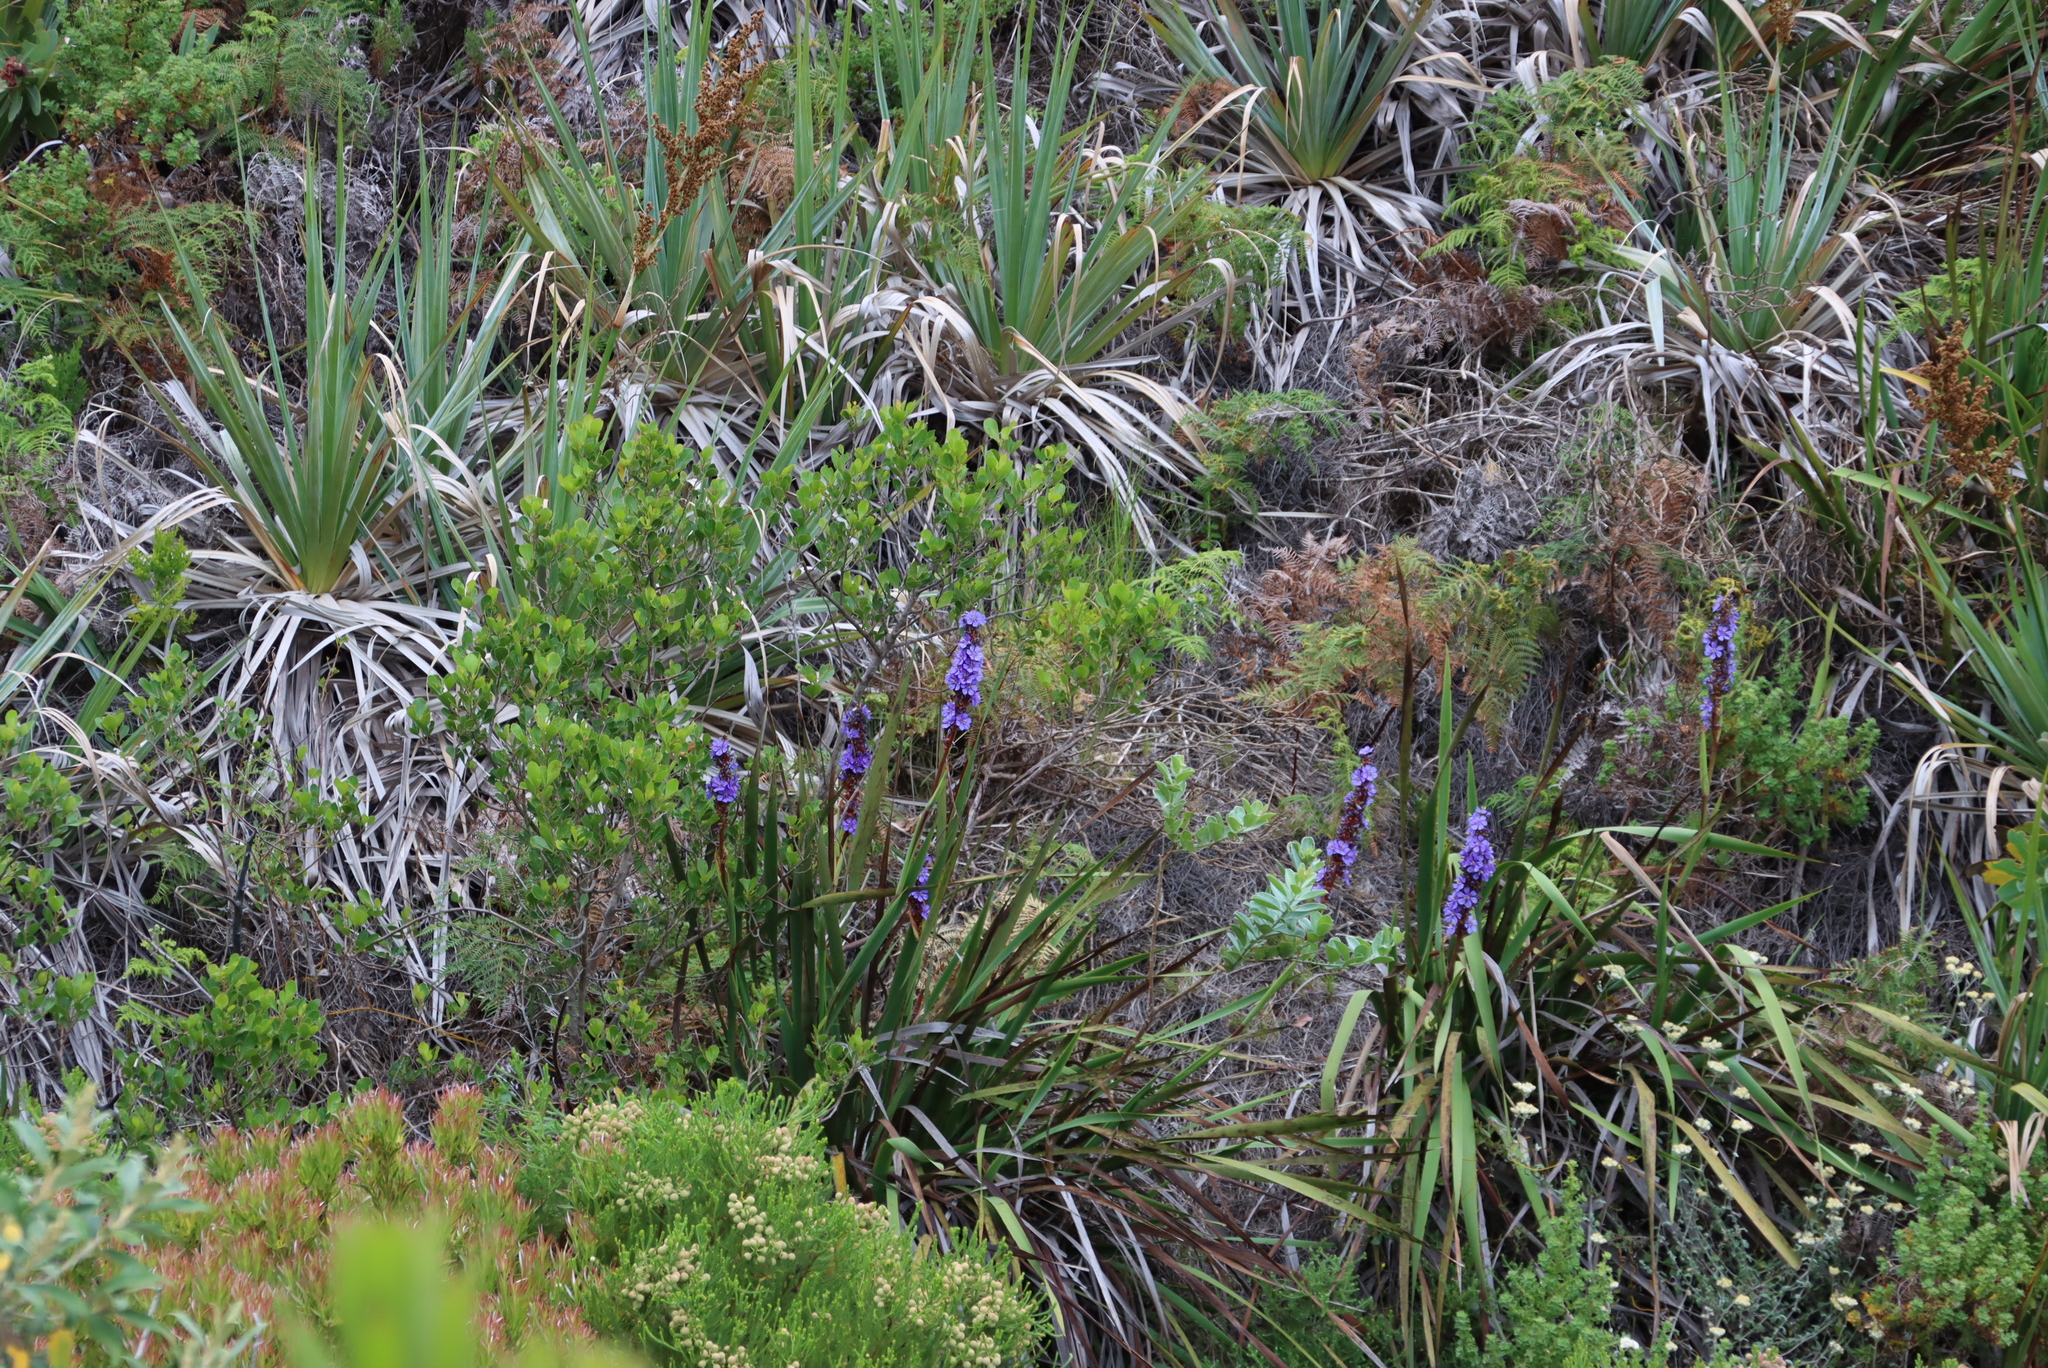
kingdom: Plantae
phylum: Tracheophyta
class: Liliopsida
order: Poales
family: Thurniaceae
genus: Prionium
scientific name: Prionium serratum
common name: Palmiet
